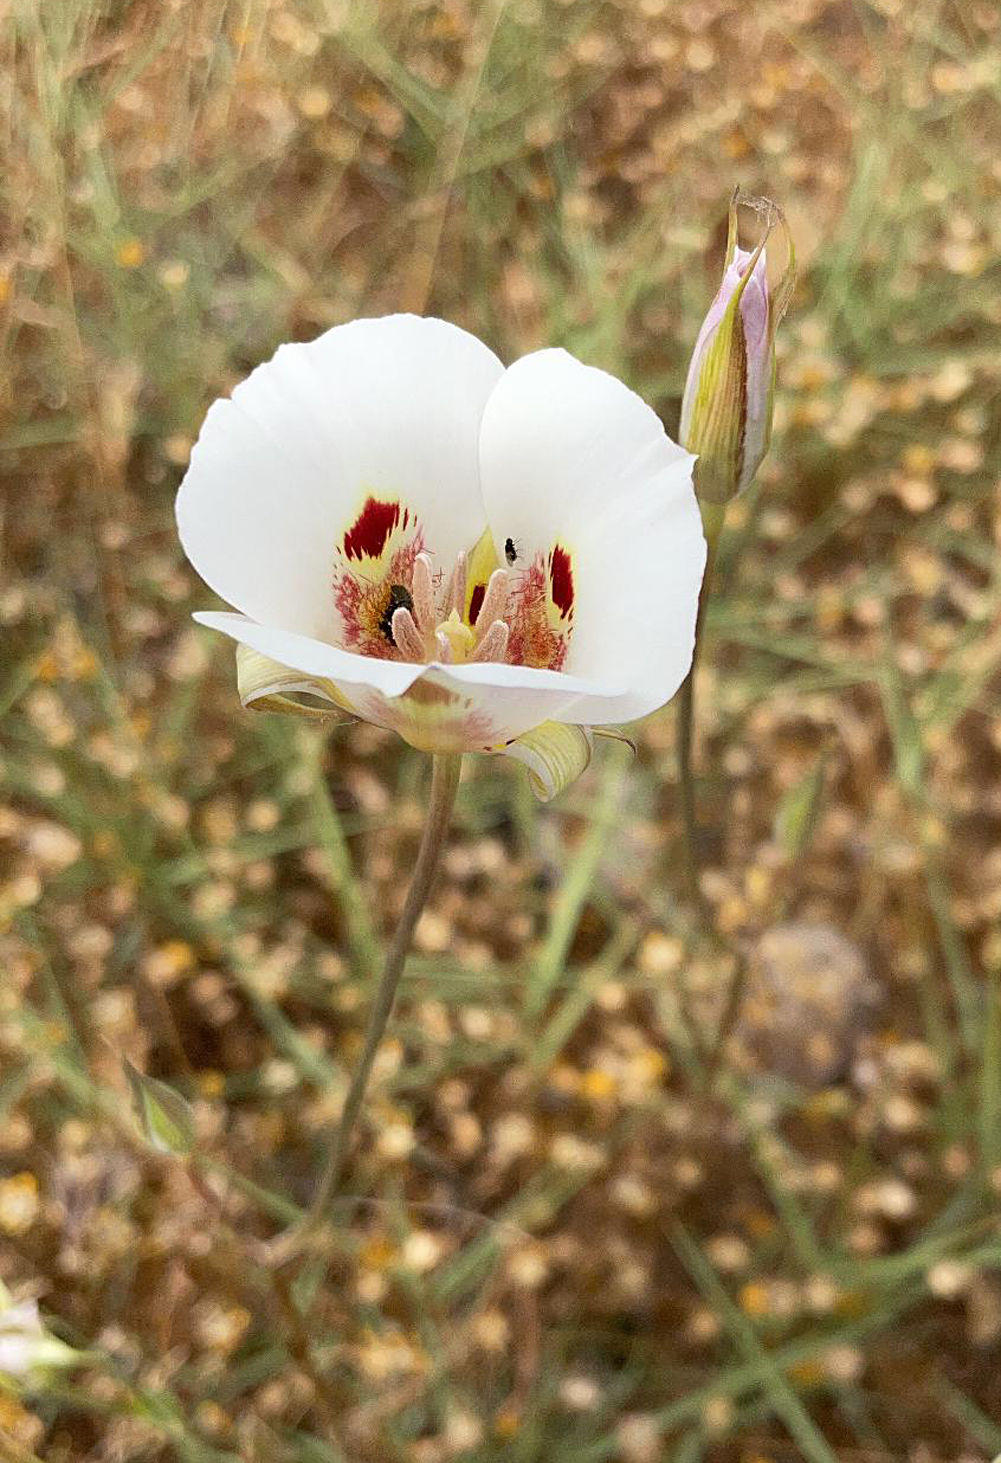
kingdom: Plantae
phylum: Tracheophyta
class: Liliopsida
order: Liliales
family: Liliaceae
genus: Calochortus
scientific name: Calochortus venustus
